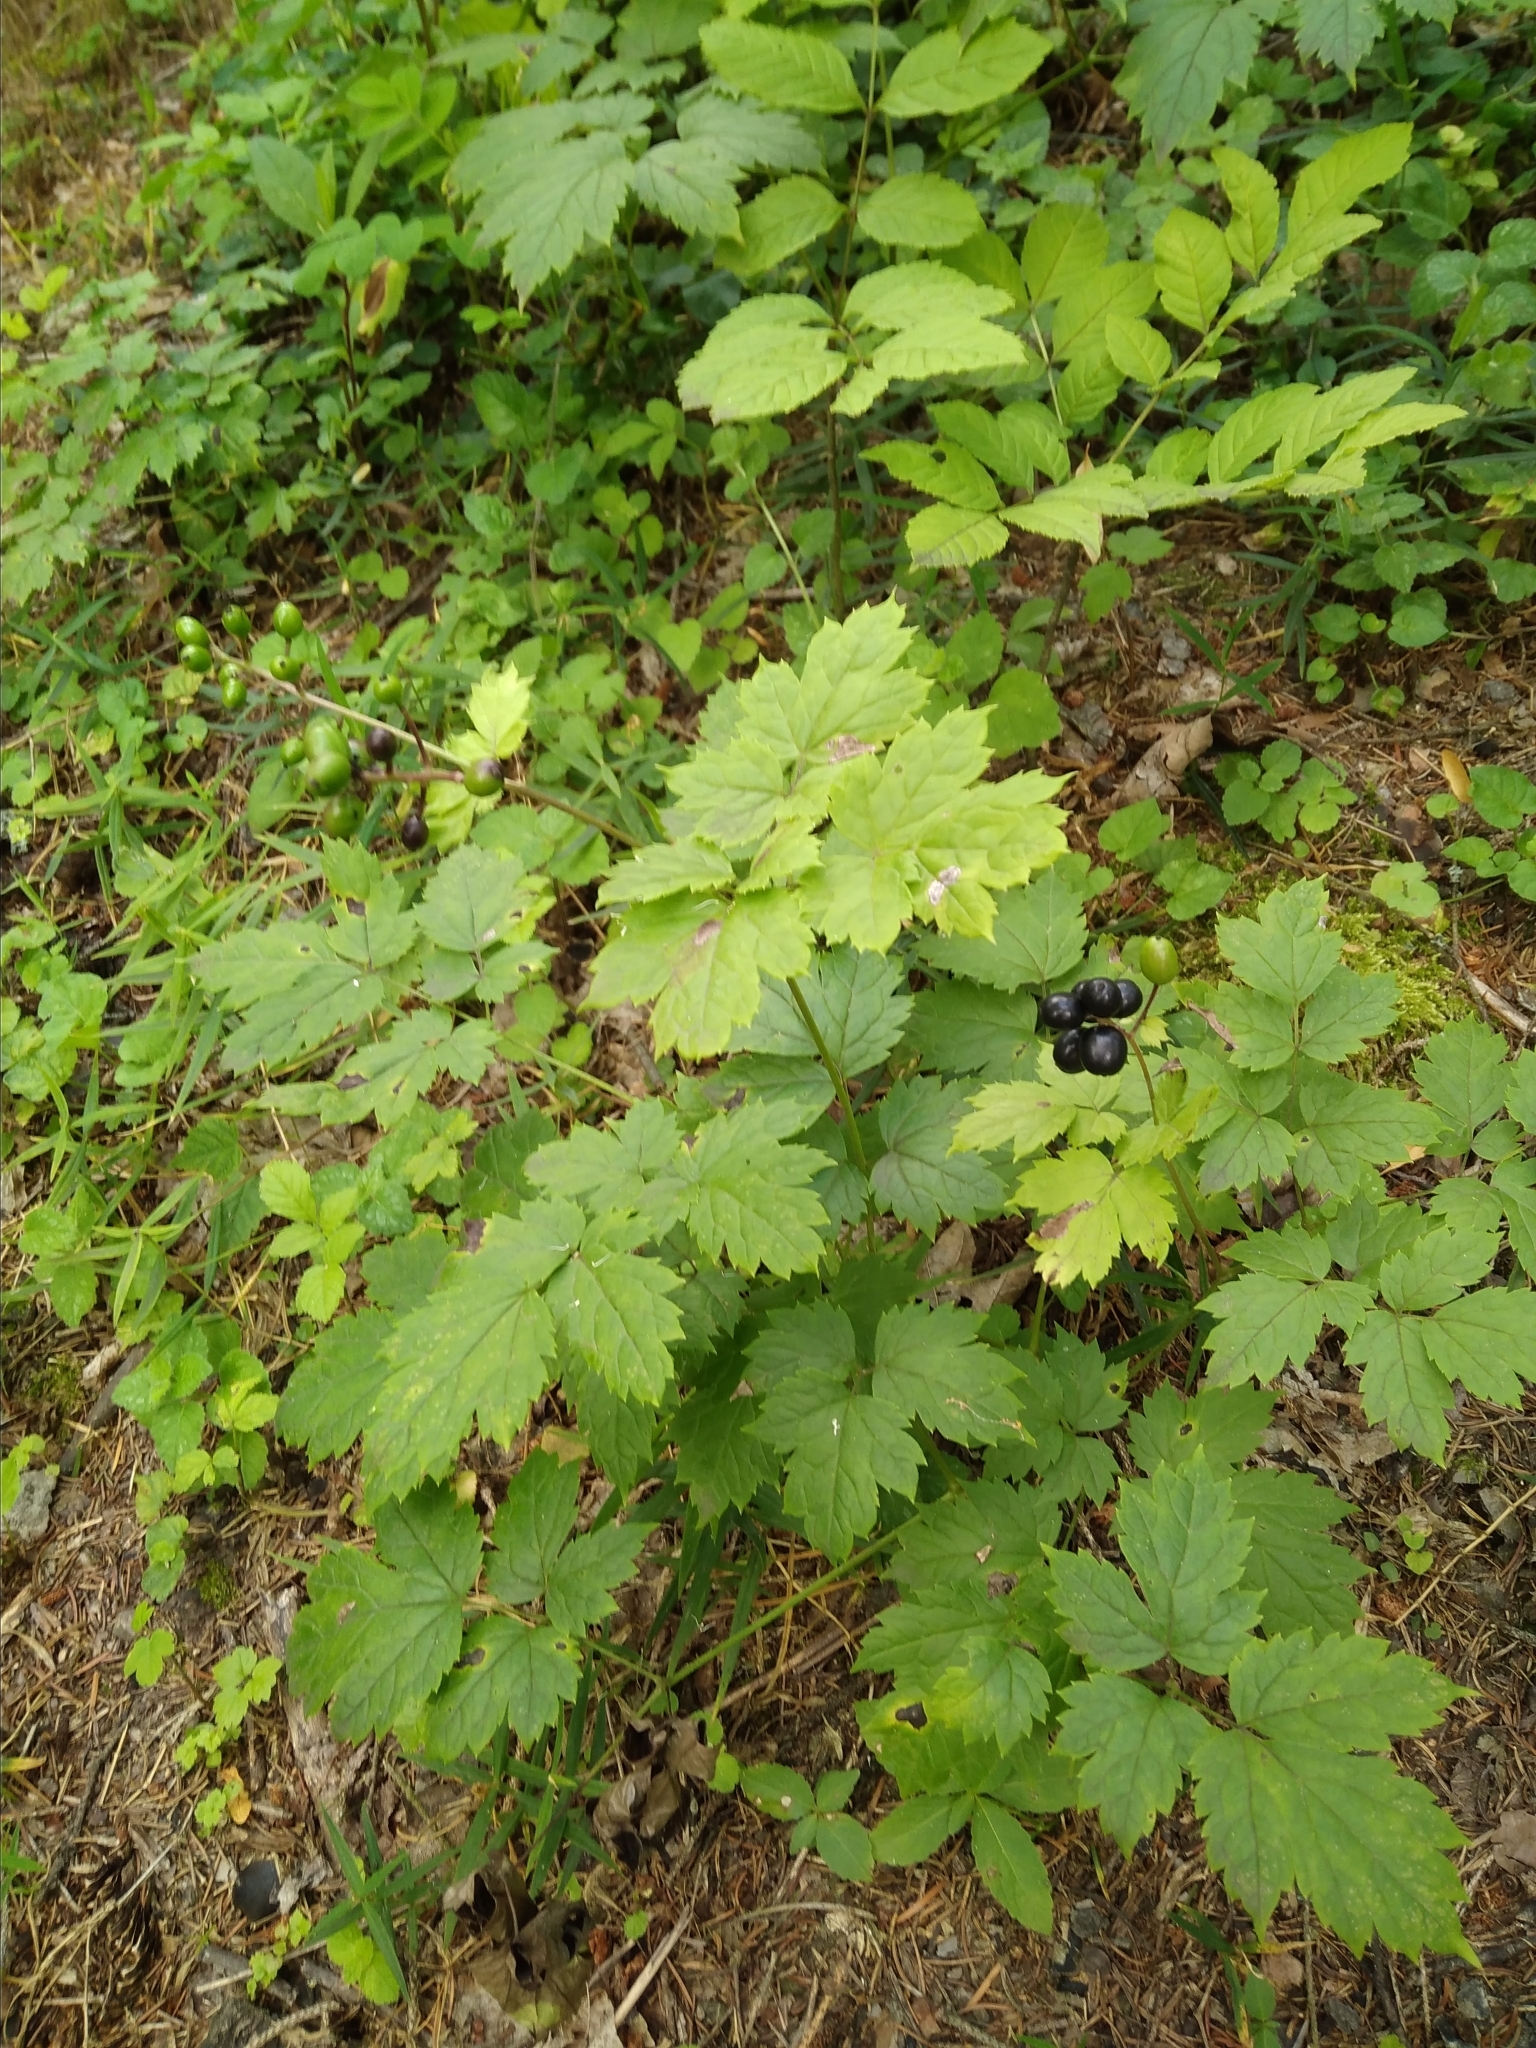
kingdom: Plantae
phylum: Tracheophyta
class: Magnoliopsida
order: Ranunculales
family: Ranunculaceae
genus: Actaea
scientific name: Actaea spicata
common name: Baneberry
